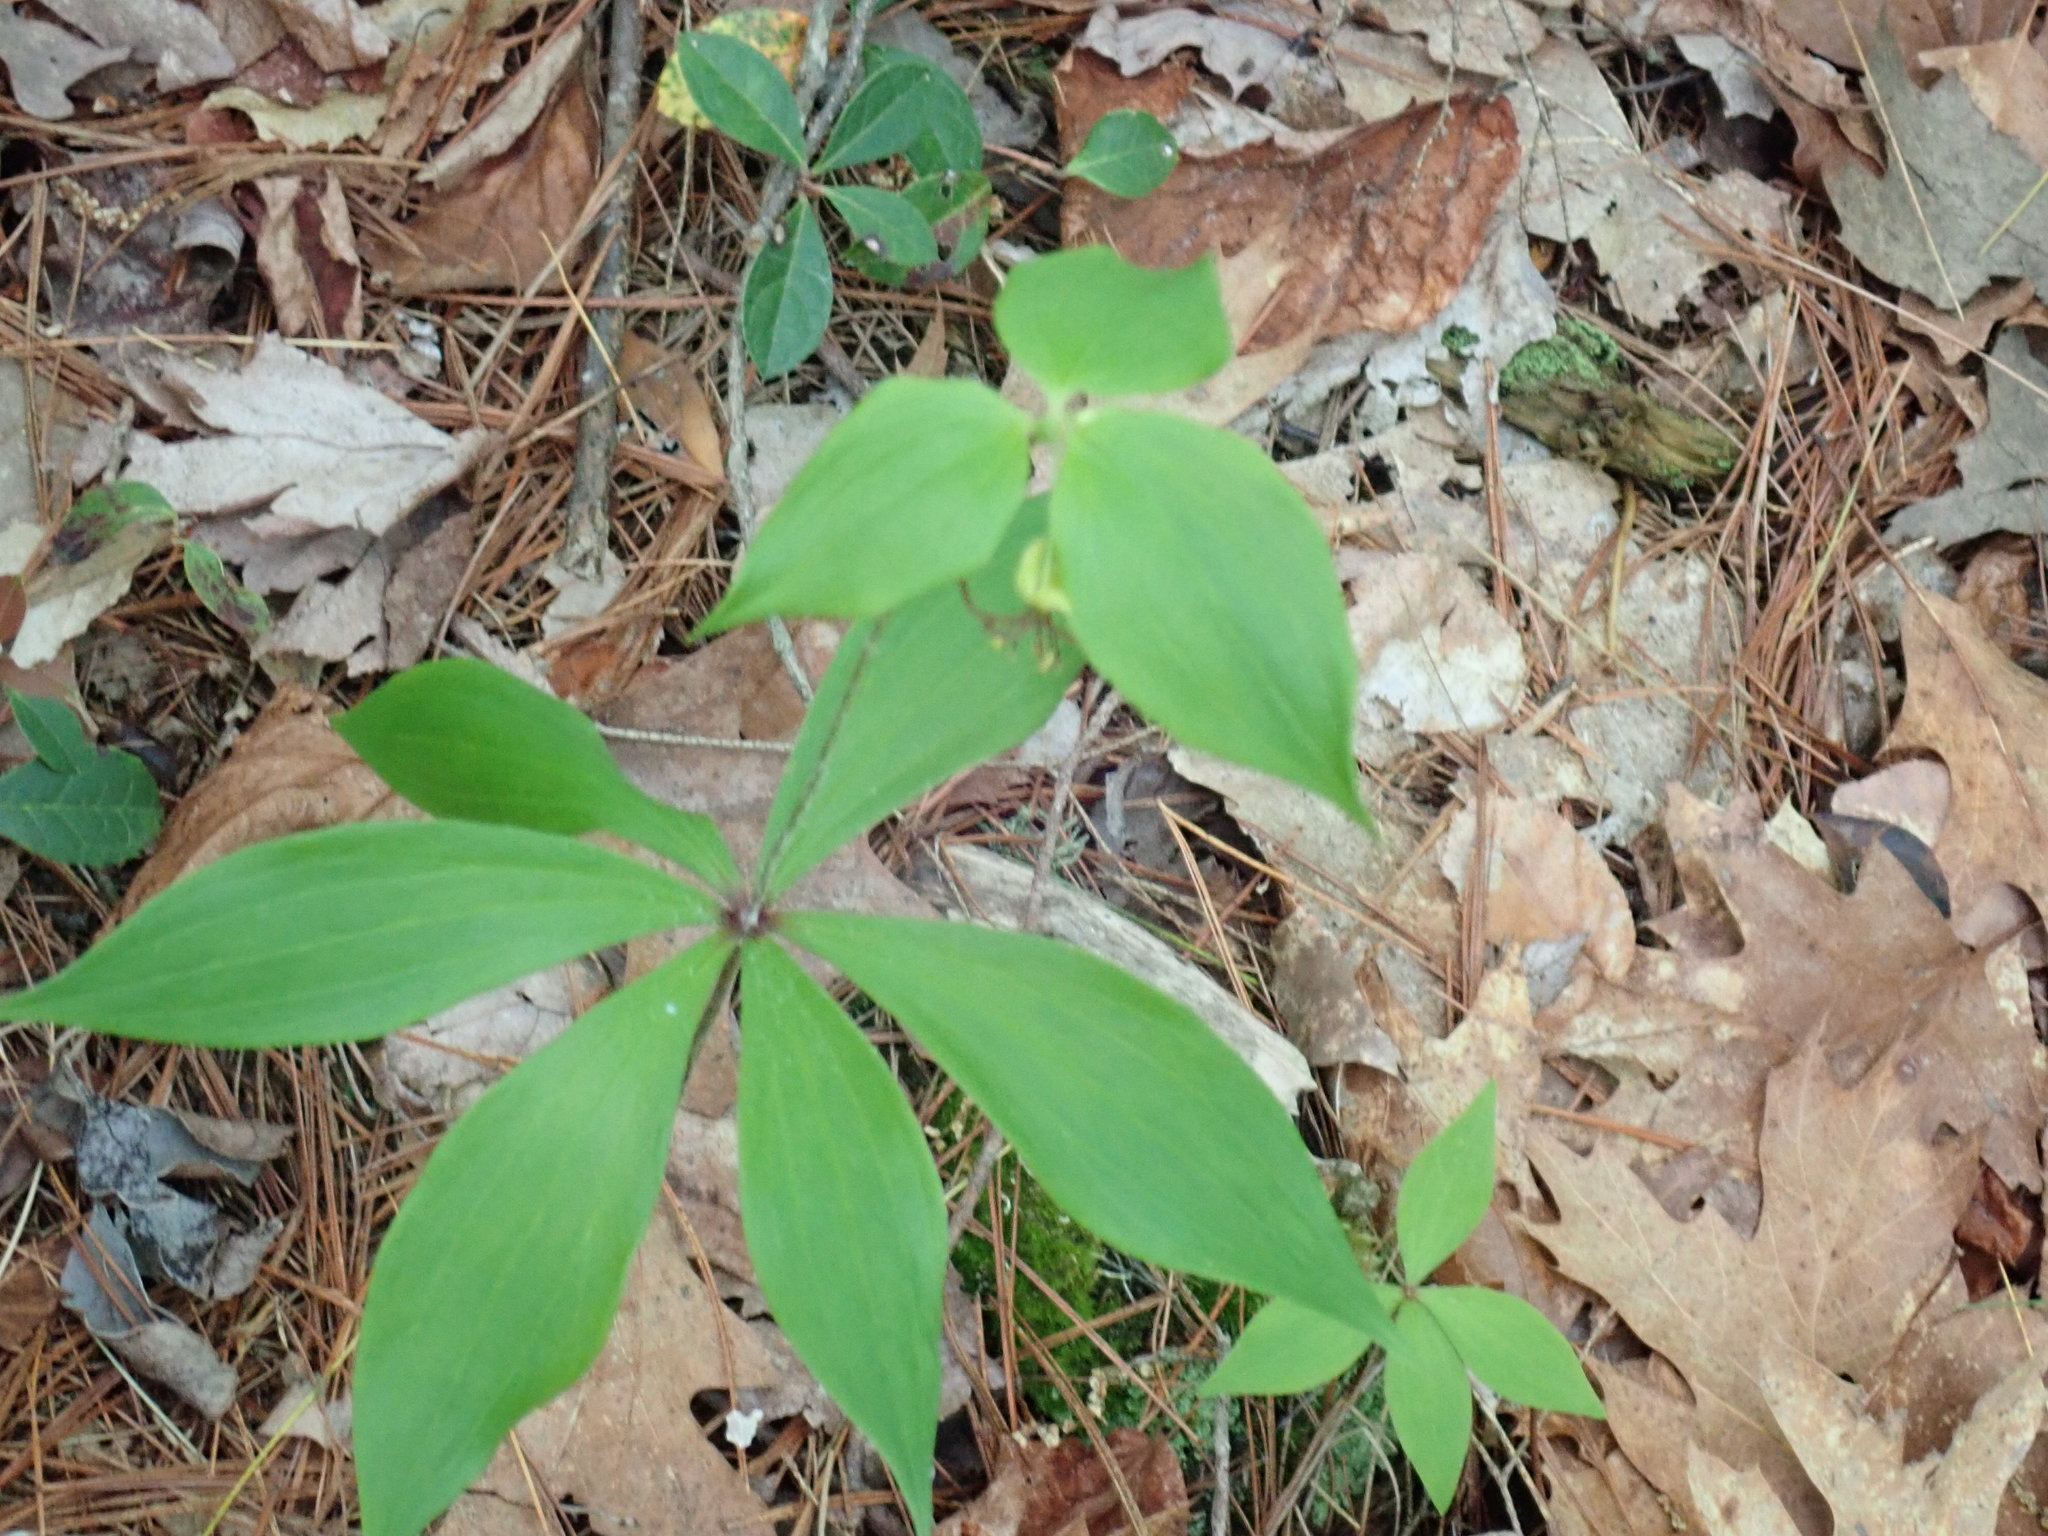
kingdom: Plantae
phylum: Tracheophyta
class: Liliopsida
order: Liliales
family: Liliaceae
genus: Medeola
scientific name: Medeola virginiana
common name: Indian cucumber-root
